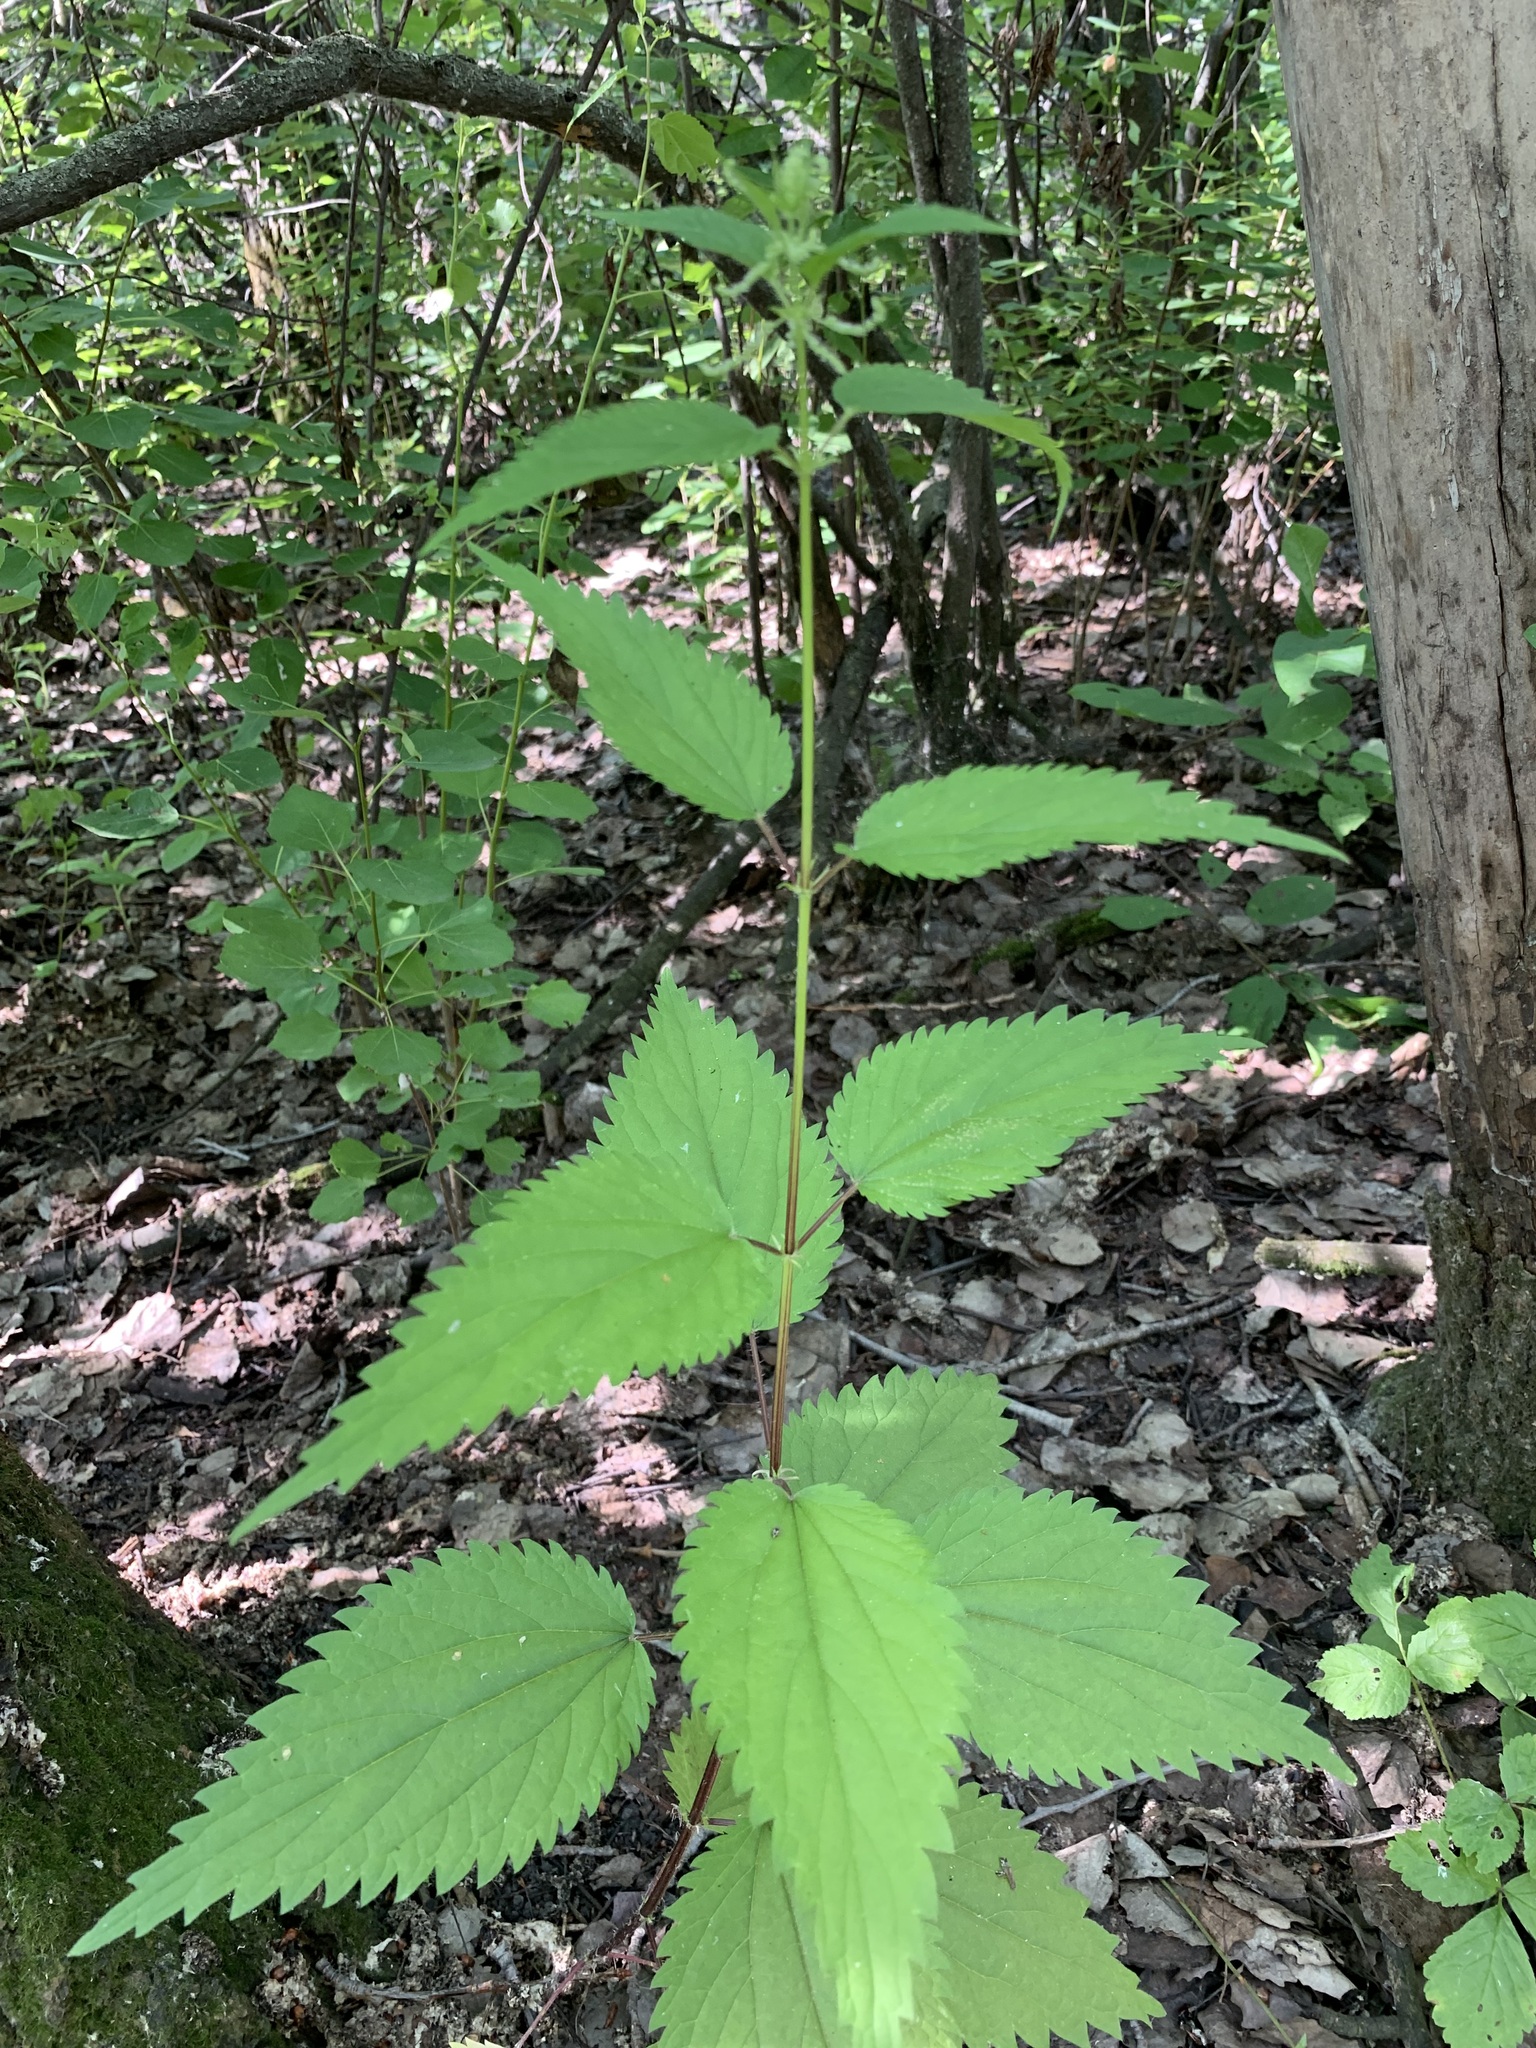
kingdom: Plantae
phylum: Tracheophyta
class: Magnoliopsida
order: Rosales
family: Urticaceae
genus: Urtica
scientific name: Urtica dioica
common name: Common nettle
